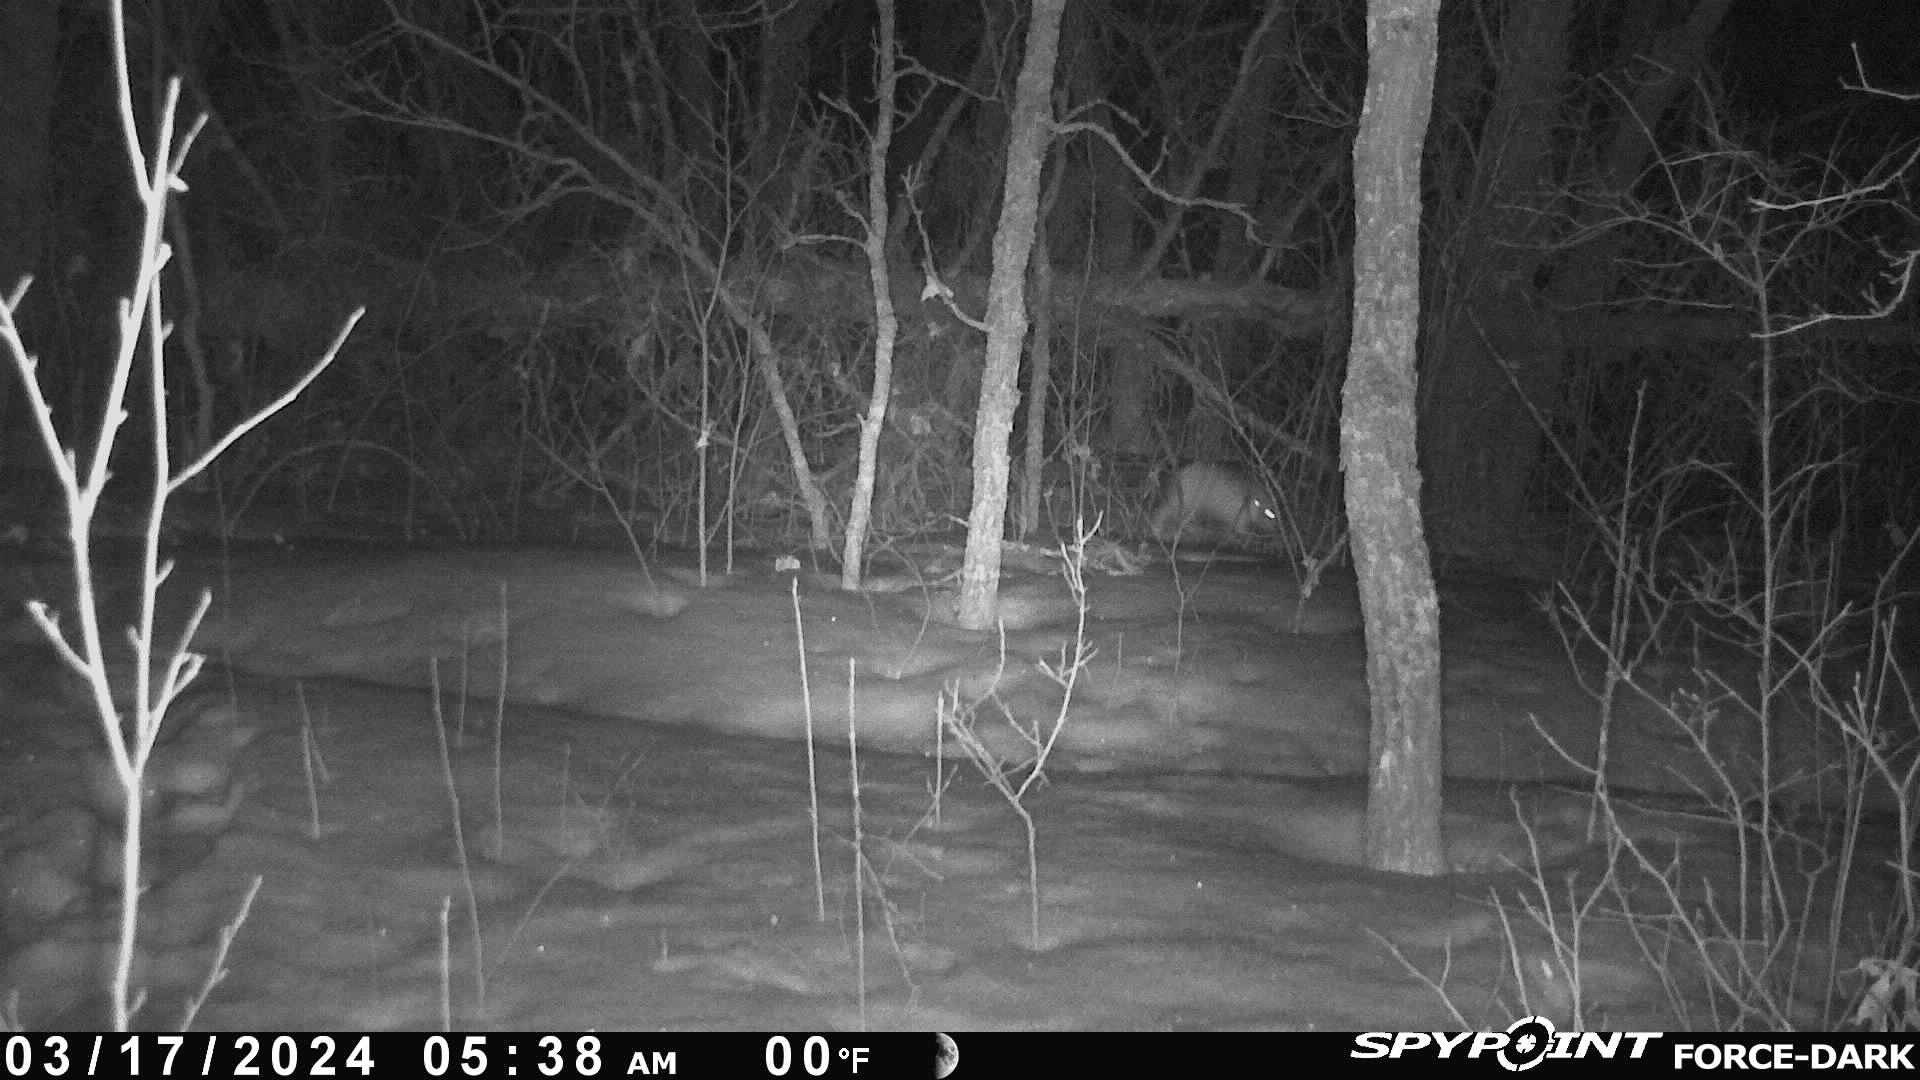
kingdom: Animalia
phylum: Chordata
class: Mammalia
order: Lagomorpha
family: Leporidae
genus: Lepus
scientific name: Lepus americanus
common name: Snowshoe hare
